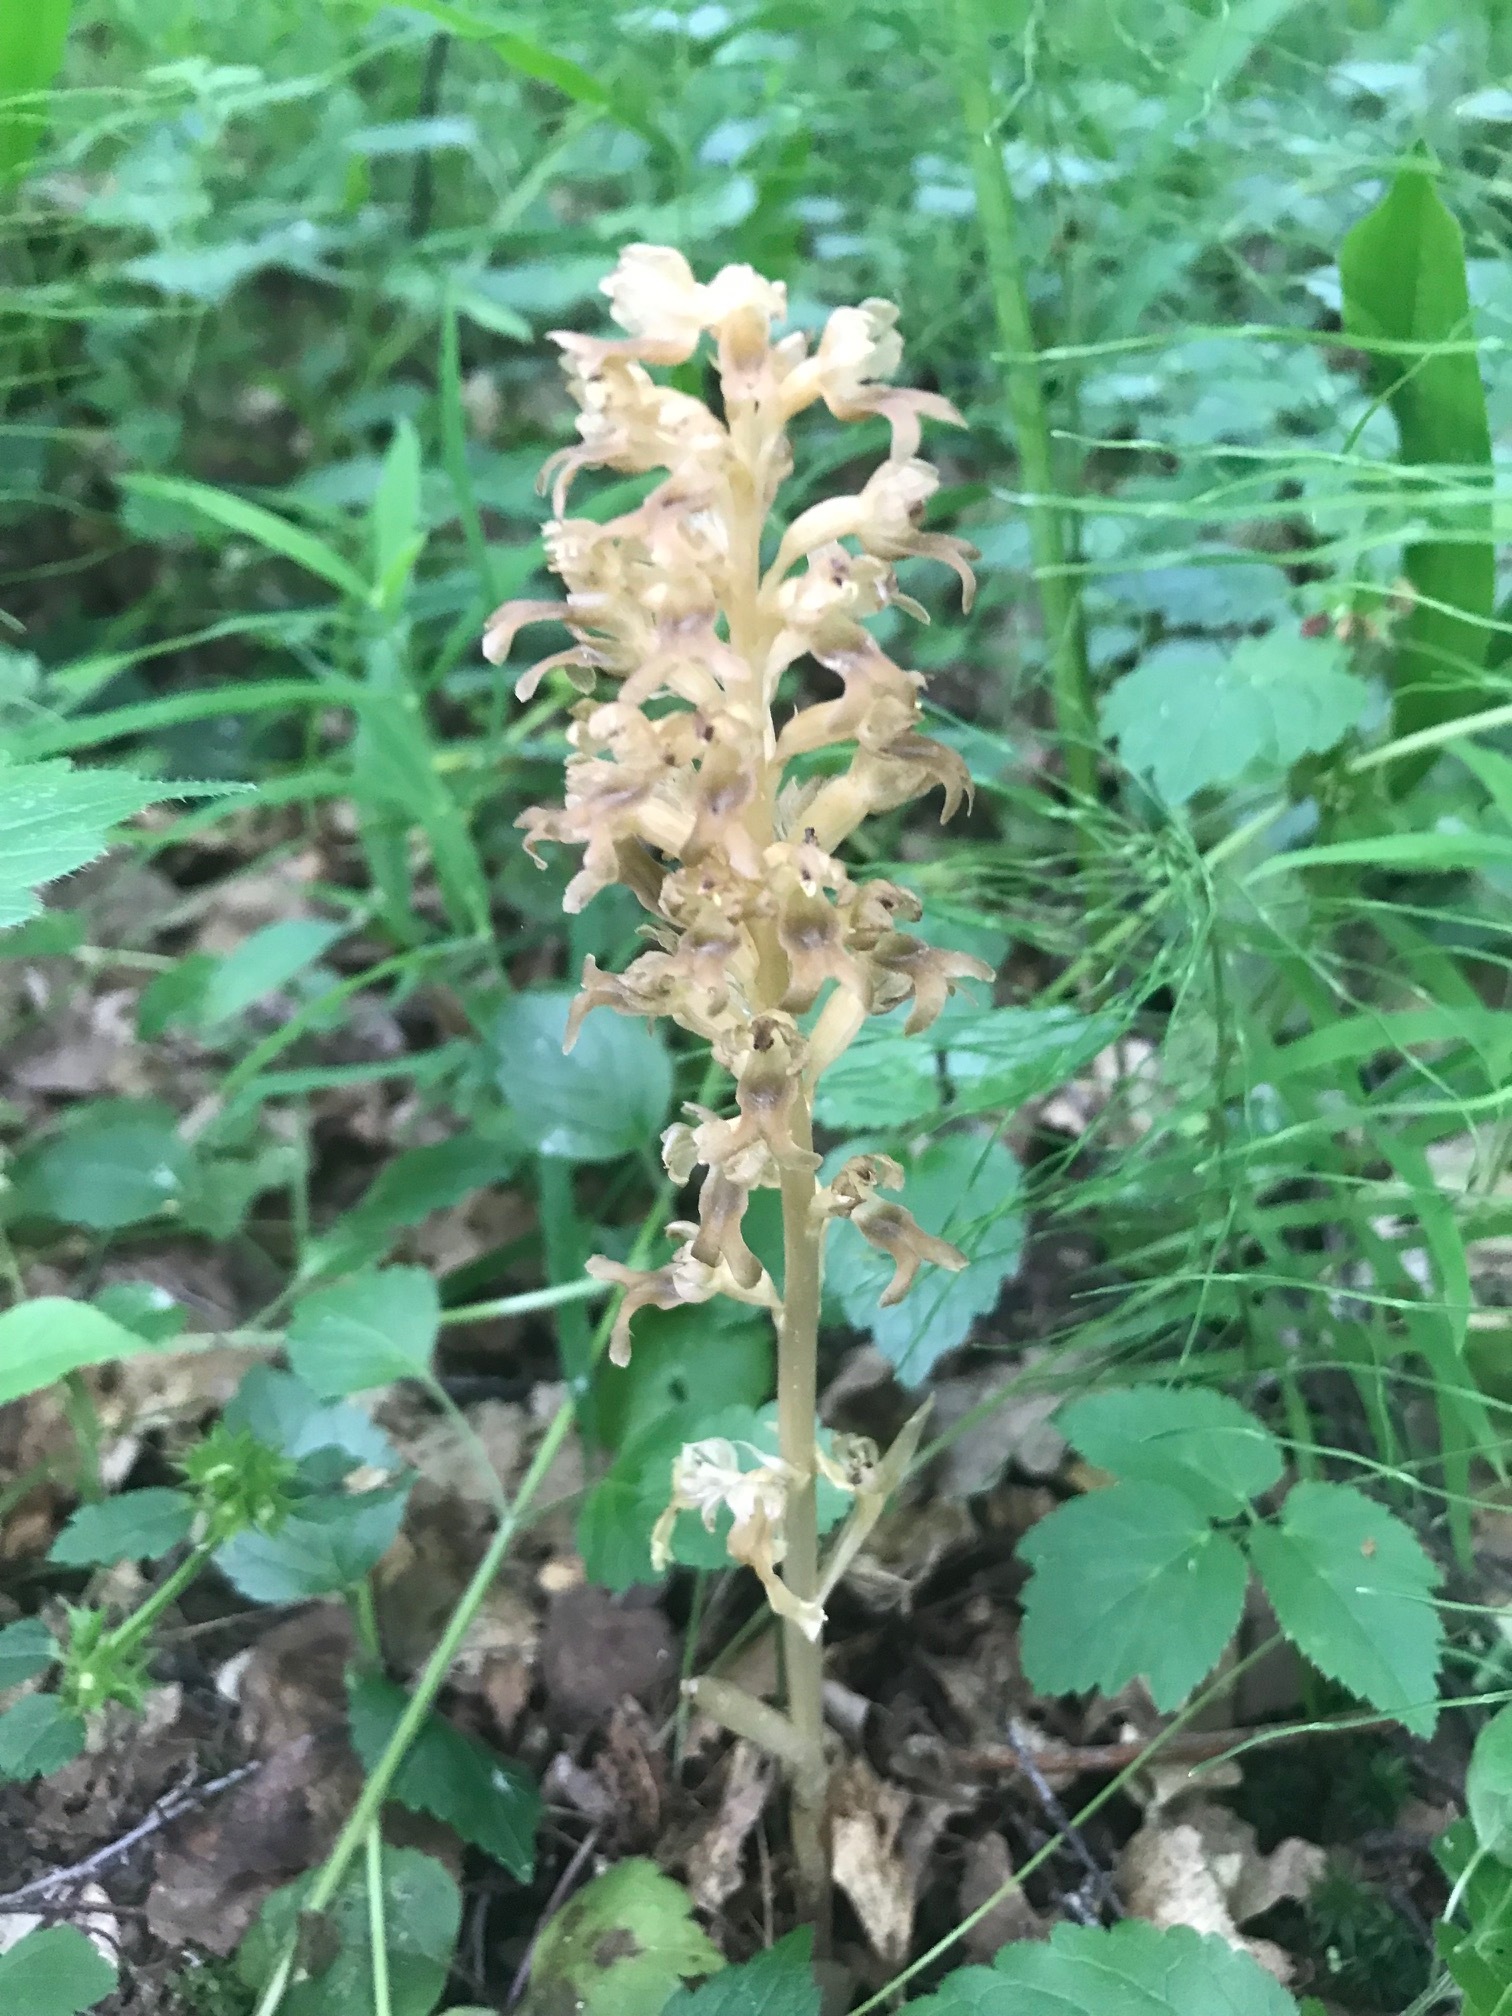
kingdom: Plantae
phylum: Tracheophyta
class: Liliopsida
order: Asparagales
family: Orchidaceae
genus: Neottia
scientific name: Neottia nidus-avis
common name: Bird's-nest orchid
